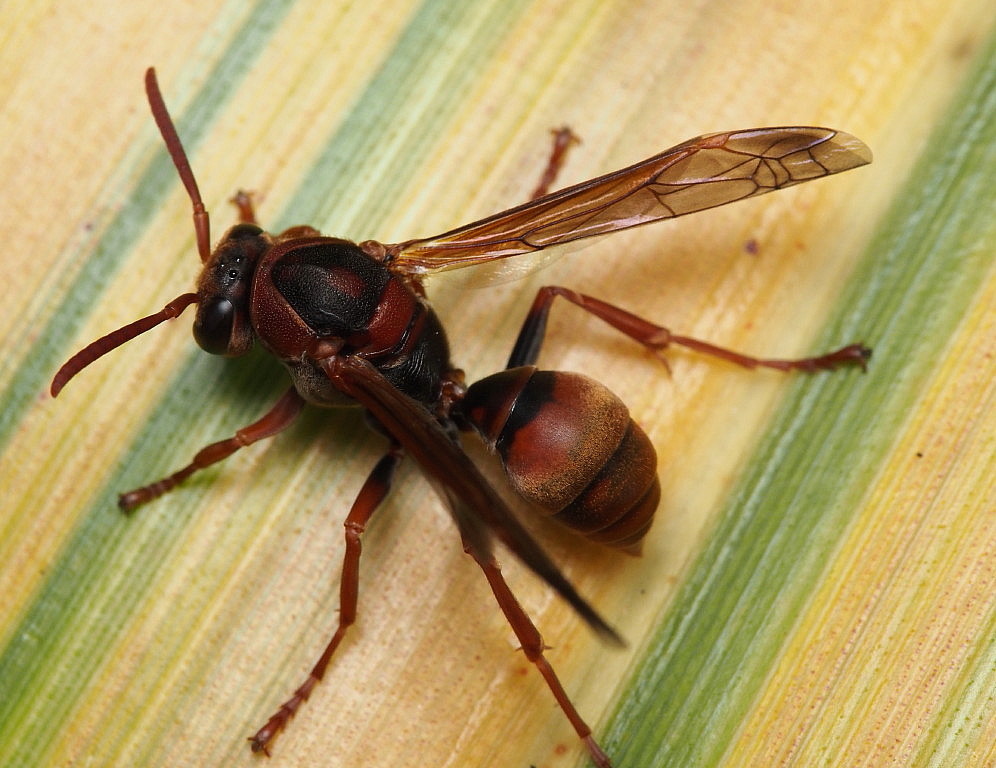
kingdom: Animalia
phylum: Arthropoda
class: Insecta
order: Hymenoptera
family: Eumenidae
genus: Polistes
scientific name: Polistes humilis
